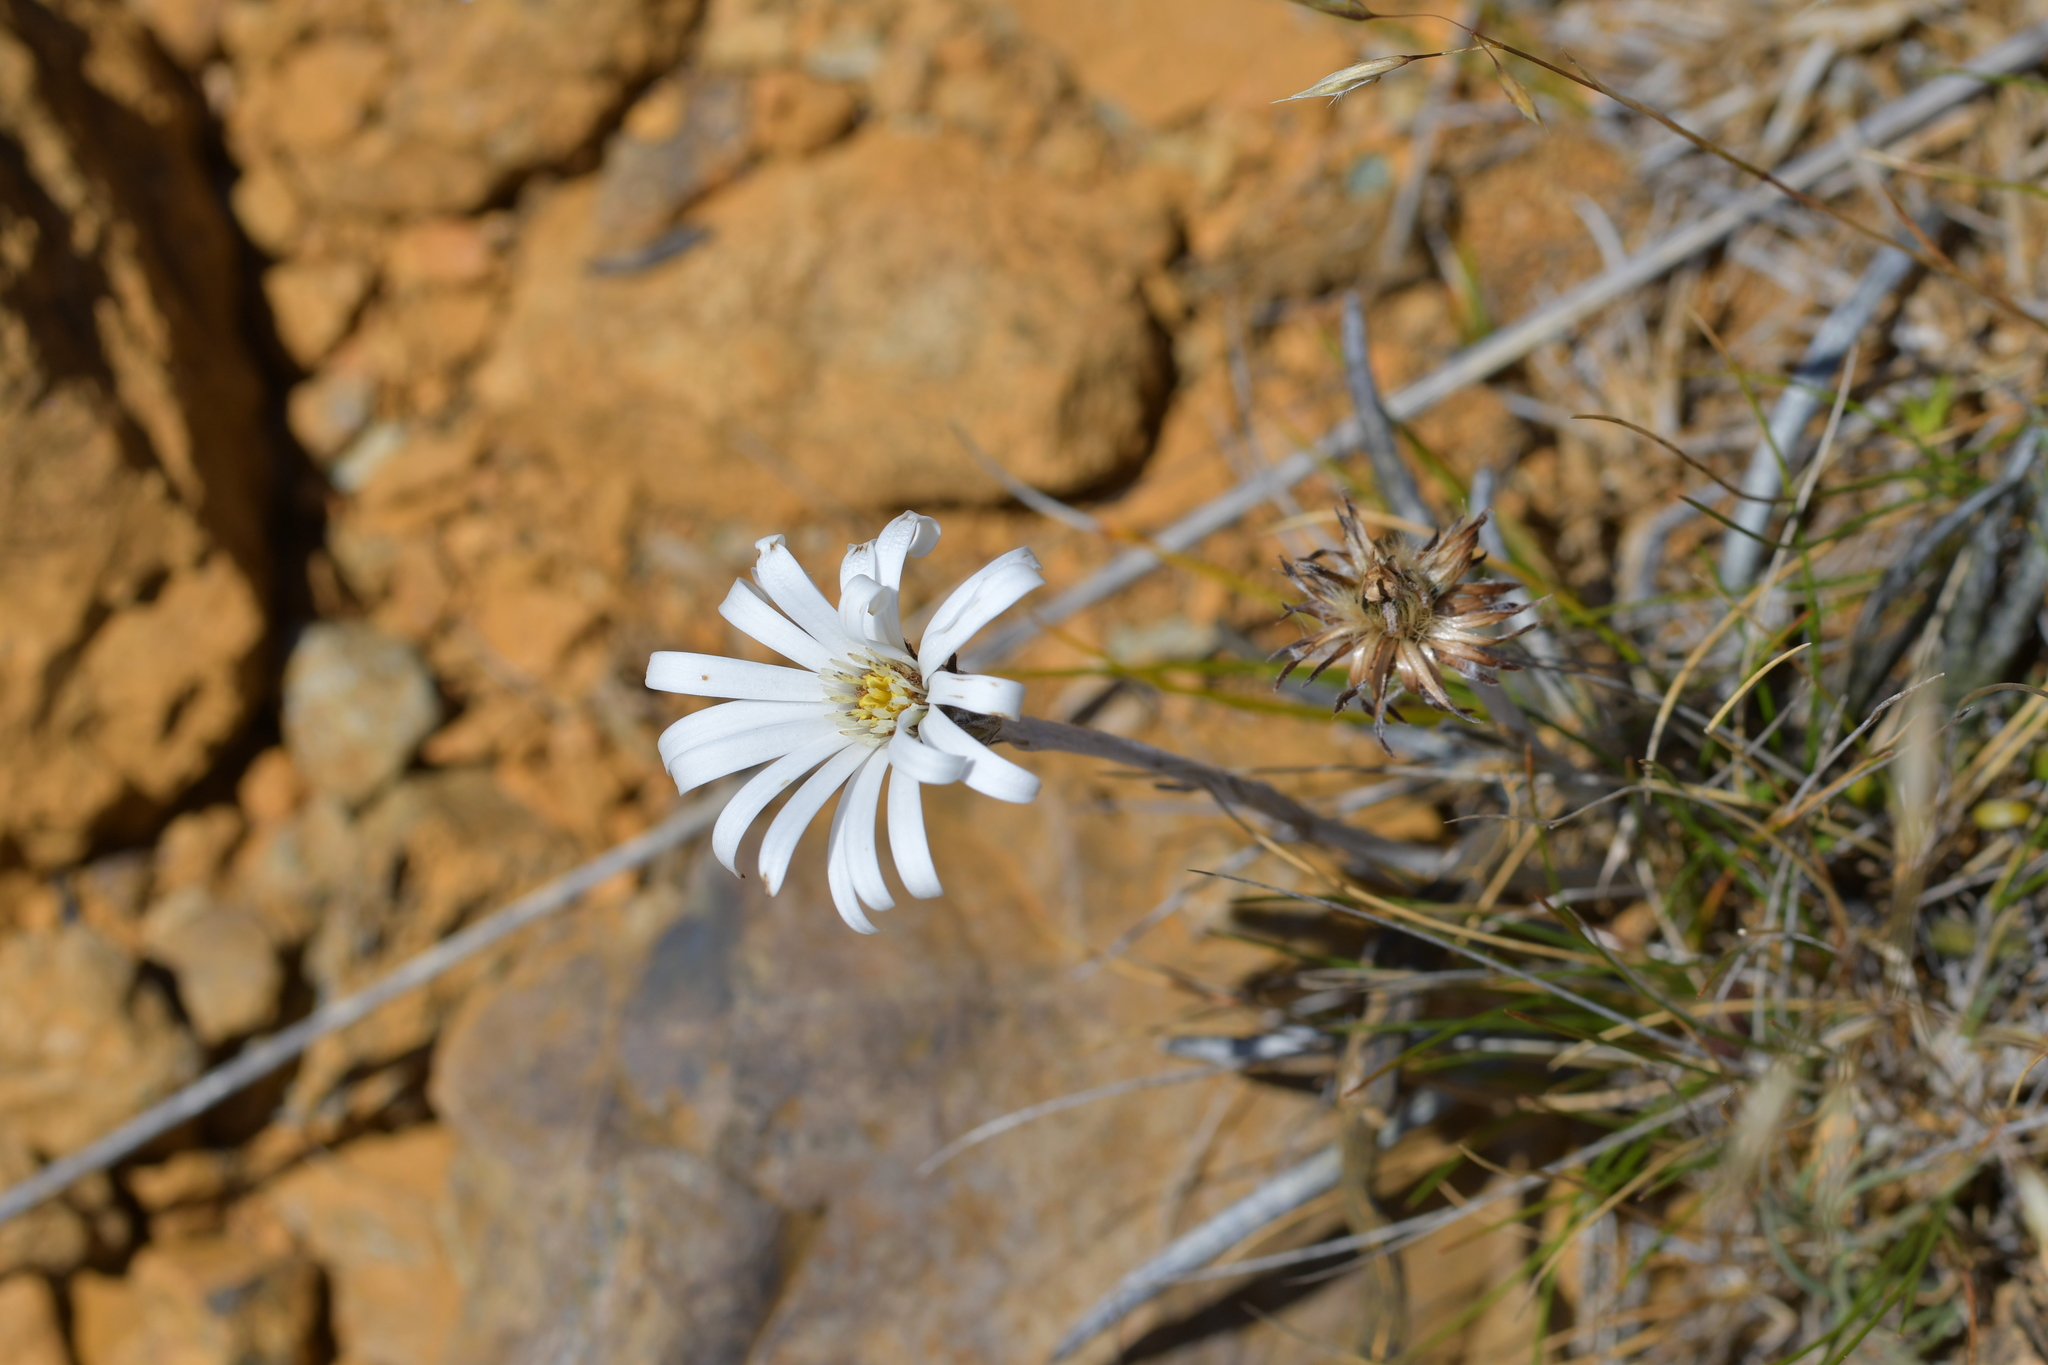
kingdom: Plantae
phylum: Tracheophyta
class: Magnoliopsida
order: Asterales
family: Asteraceae
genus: Celmisia
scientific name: Celmisia gracilenta
